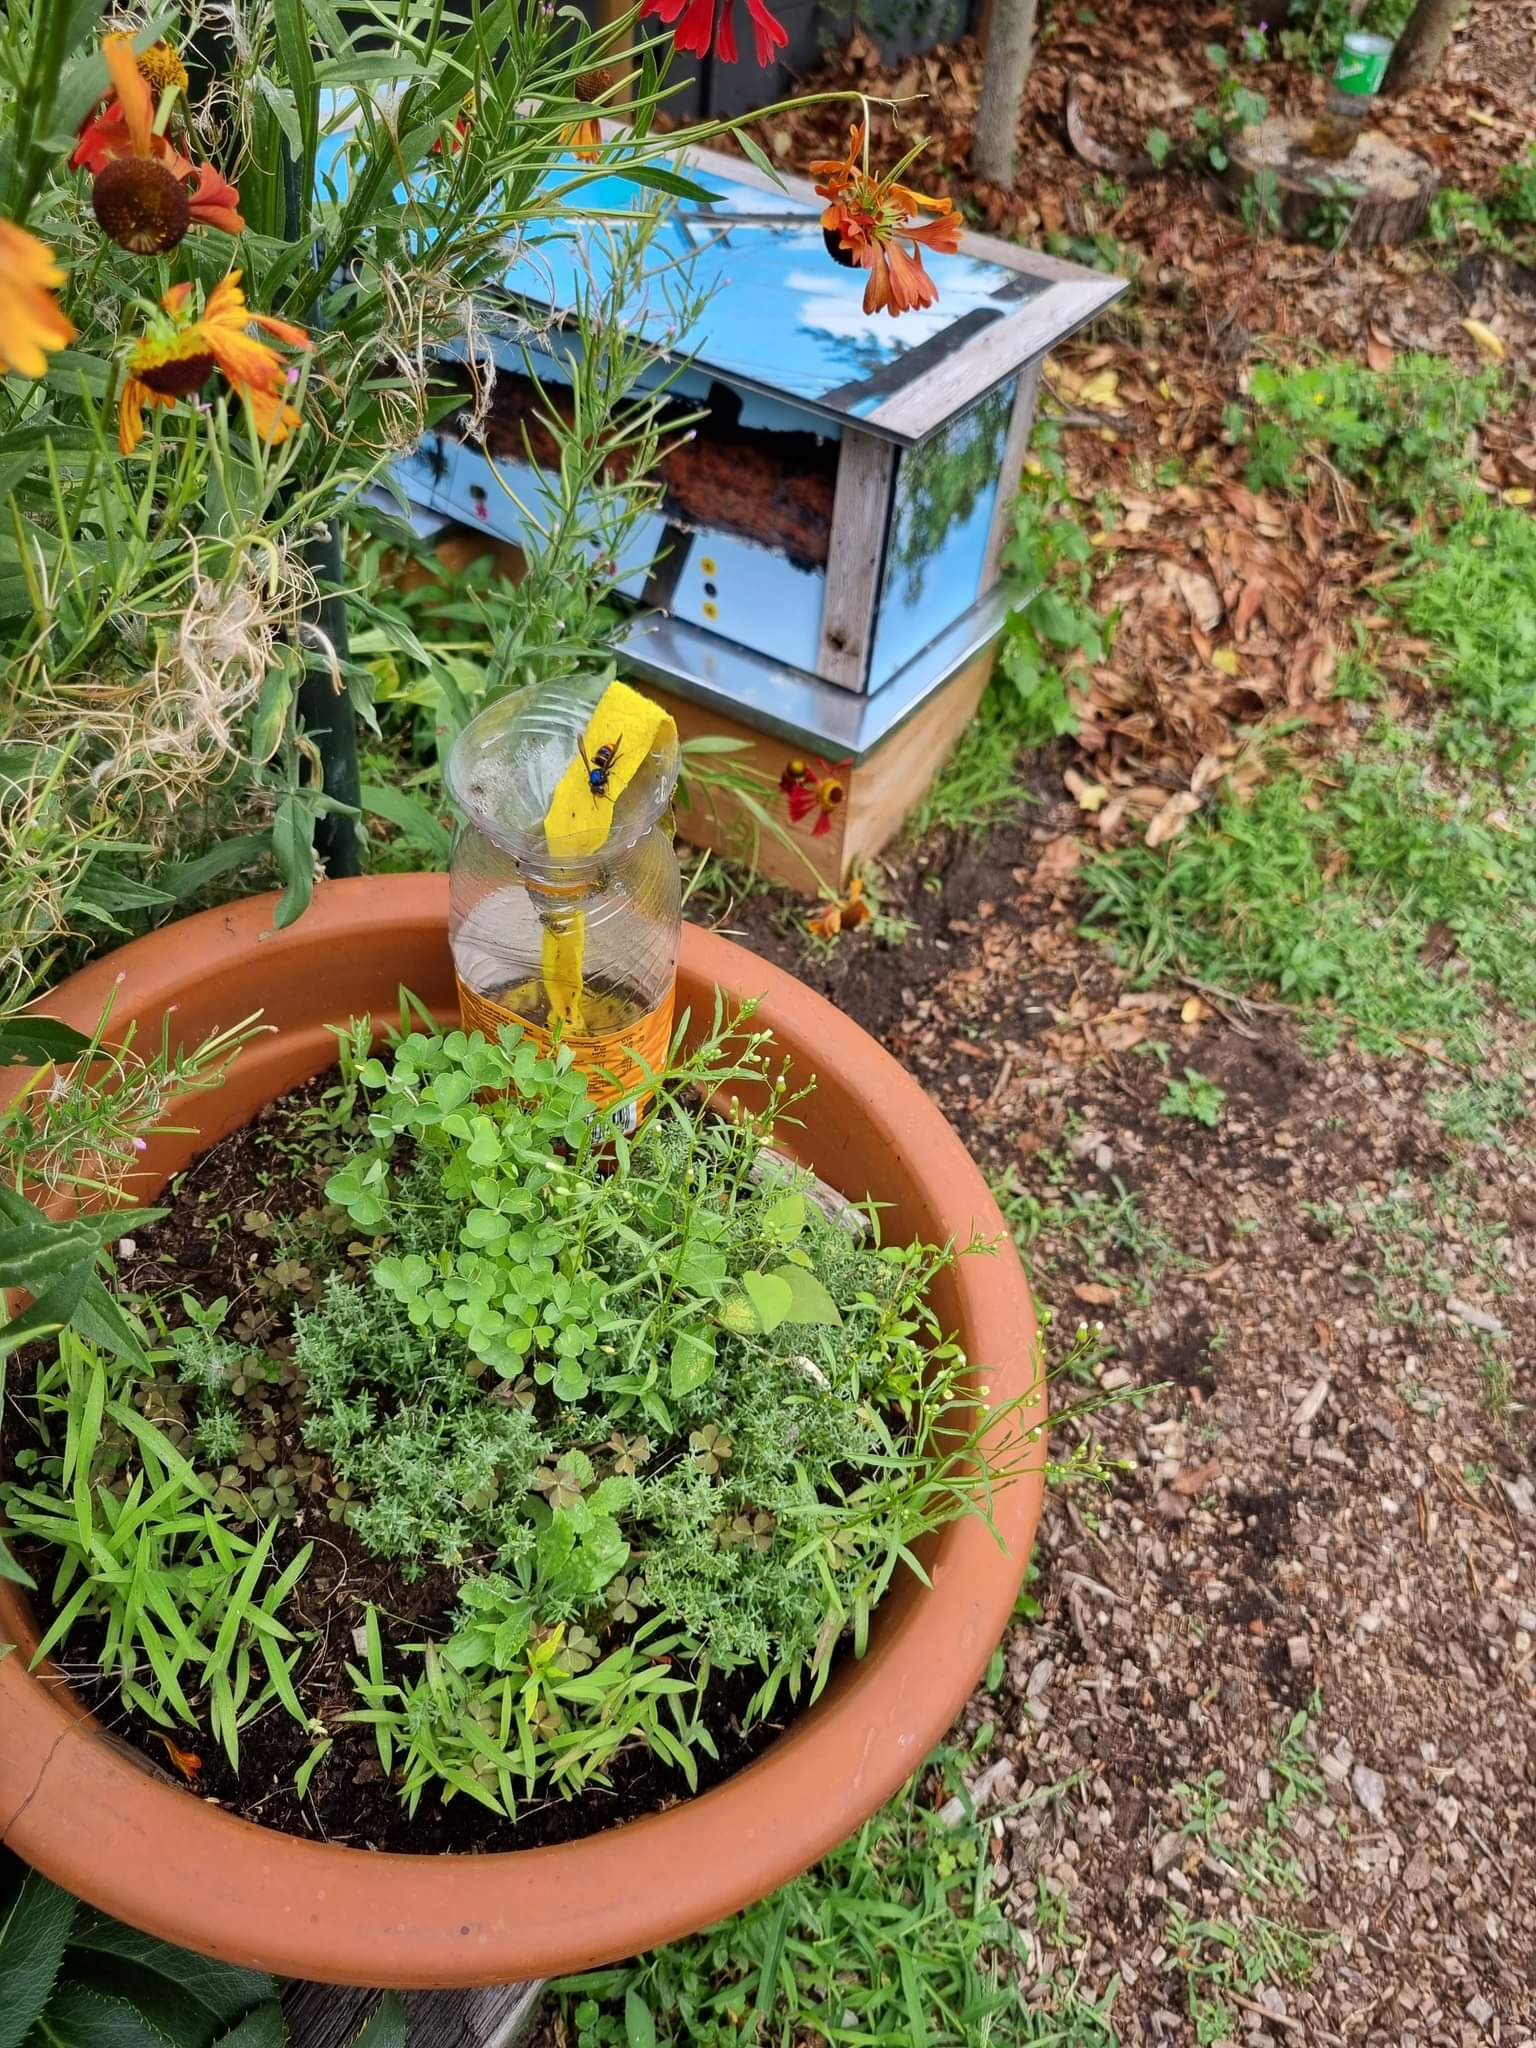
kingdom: Animalia
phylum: Arthropoda
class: Insecta
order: Hymenoptera
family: Vespidae
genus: Vespa
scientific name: Vespa velutina
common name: Asian hornet
